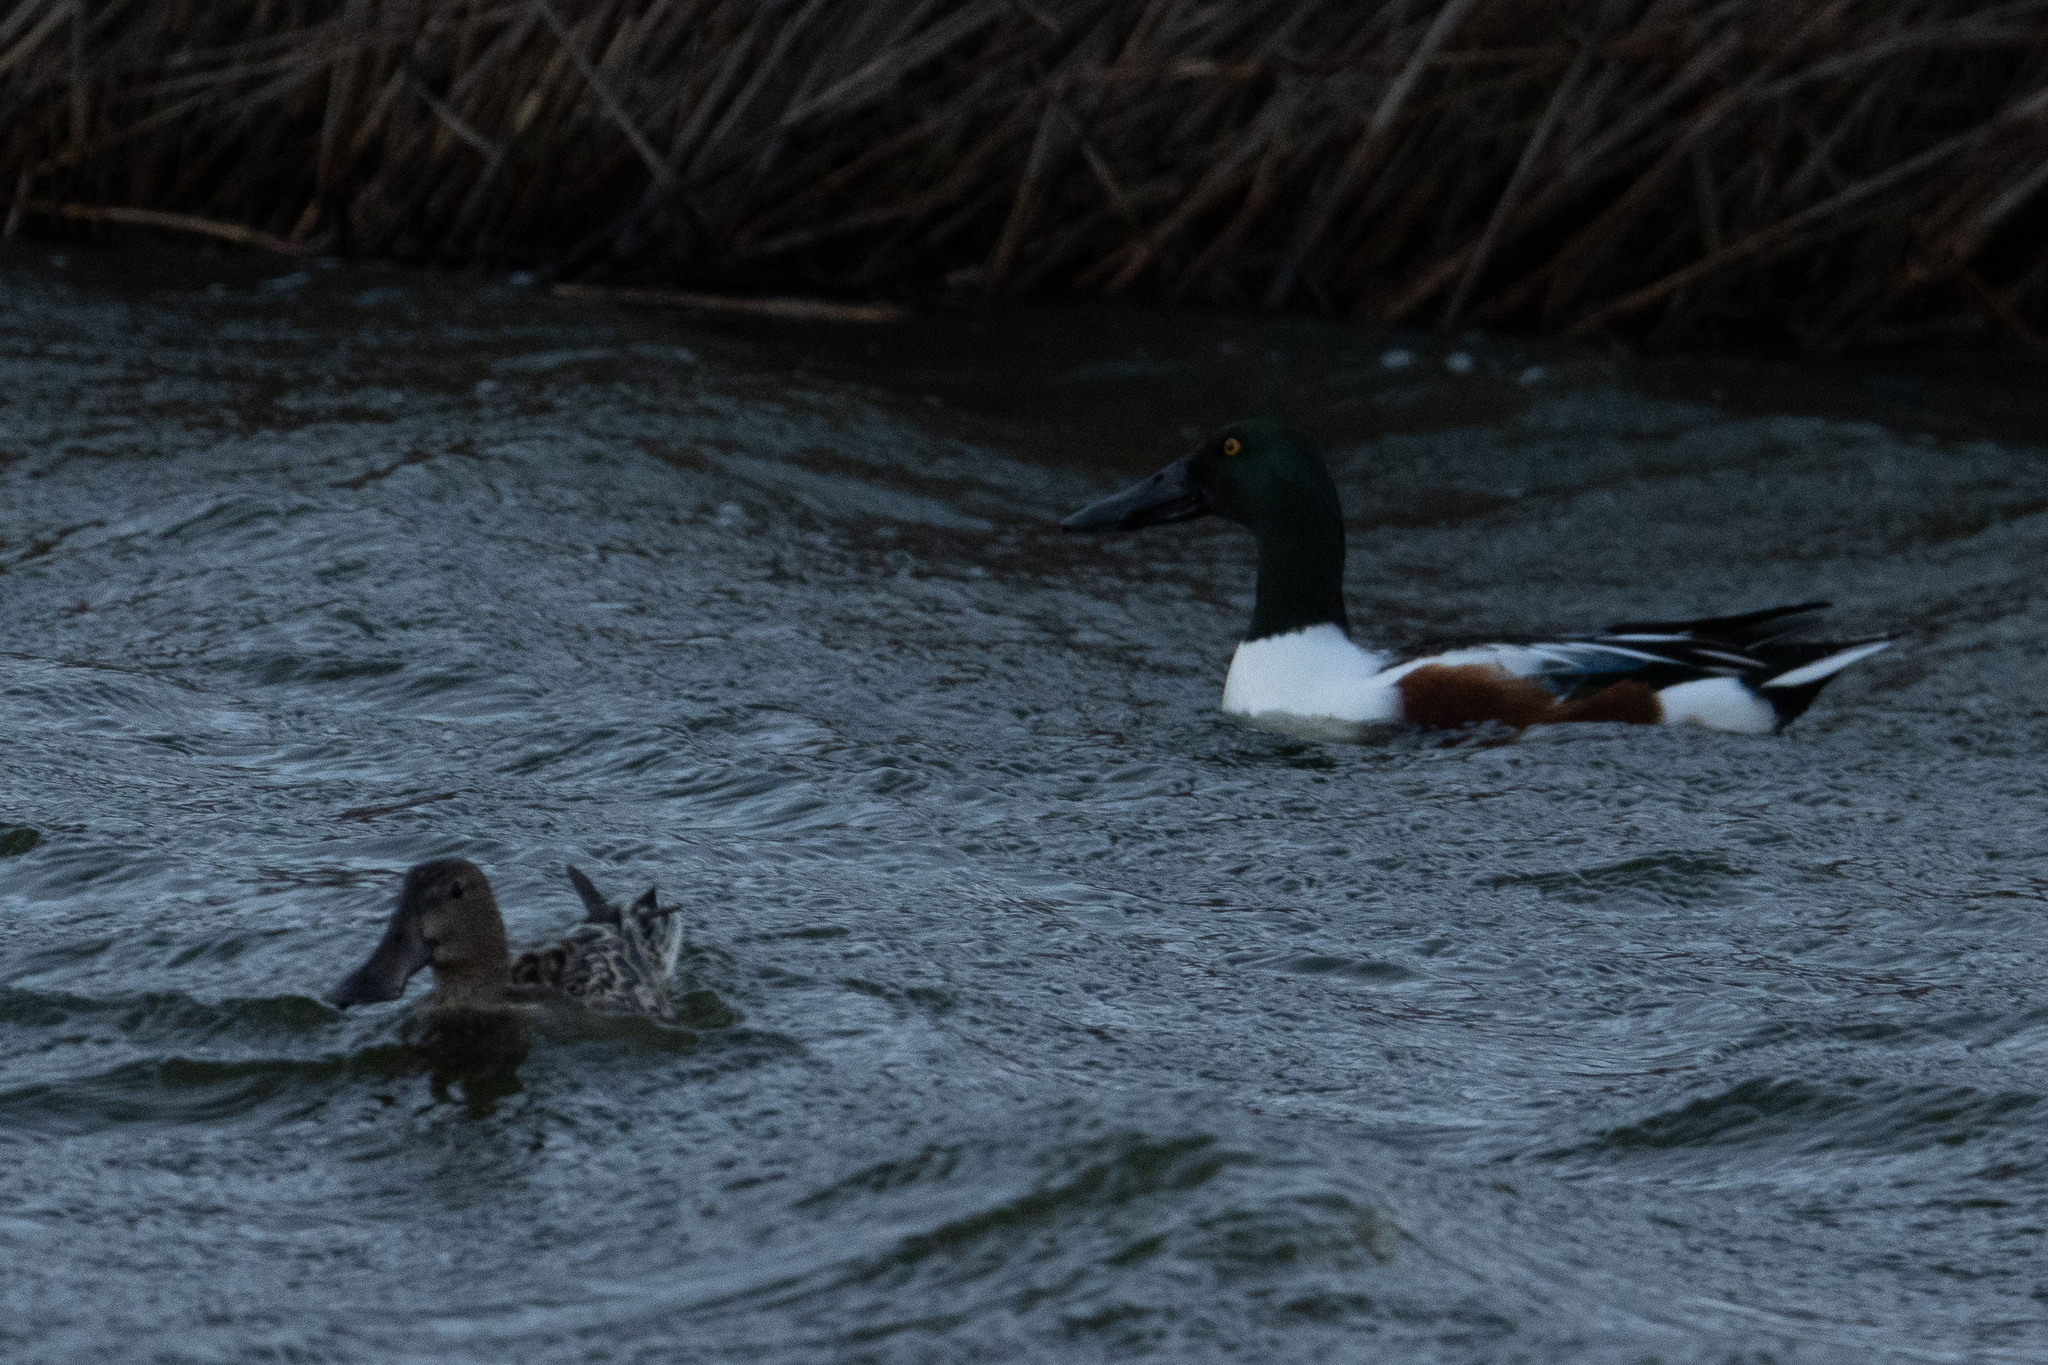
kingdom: Animalia
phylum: Chordata
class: Aves
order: Anseriformes
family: Anatidae
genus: Spatula
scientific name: Spatula clypeata
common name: Northern shoveler
